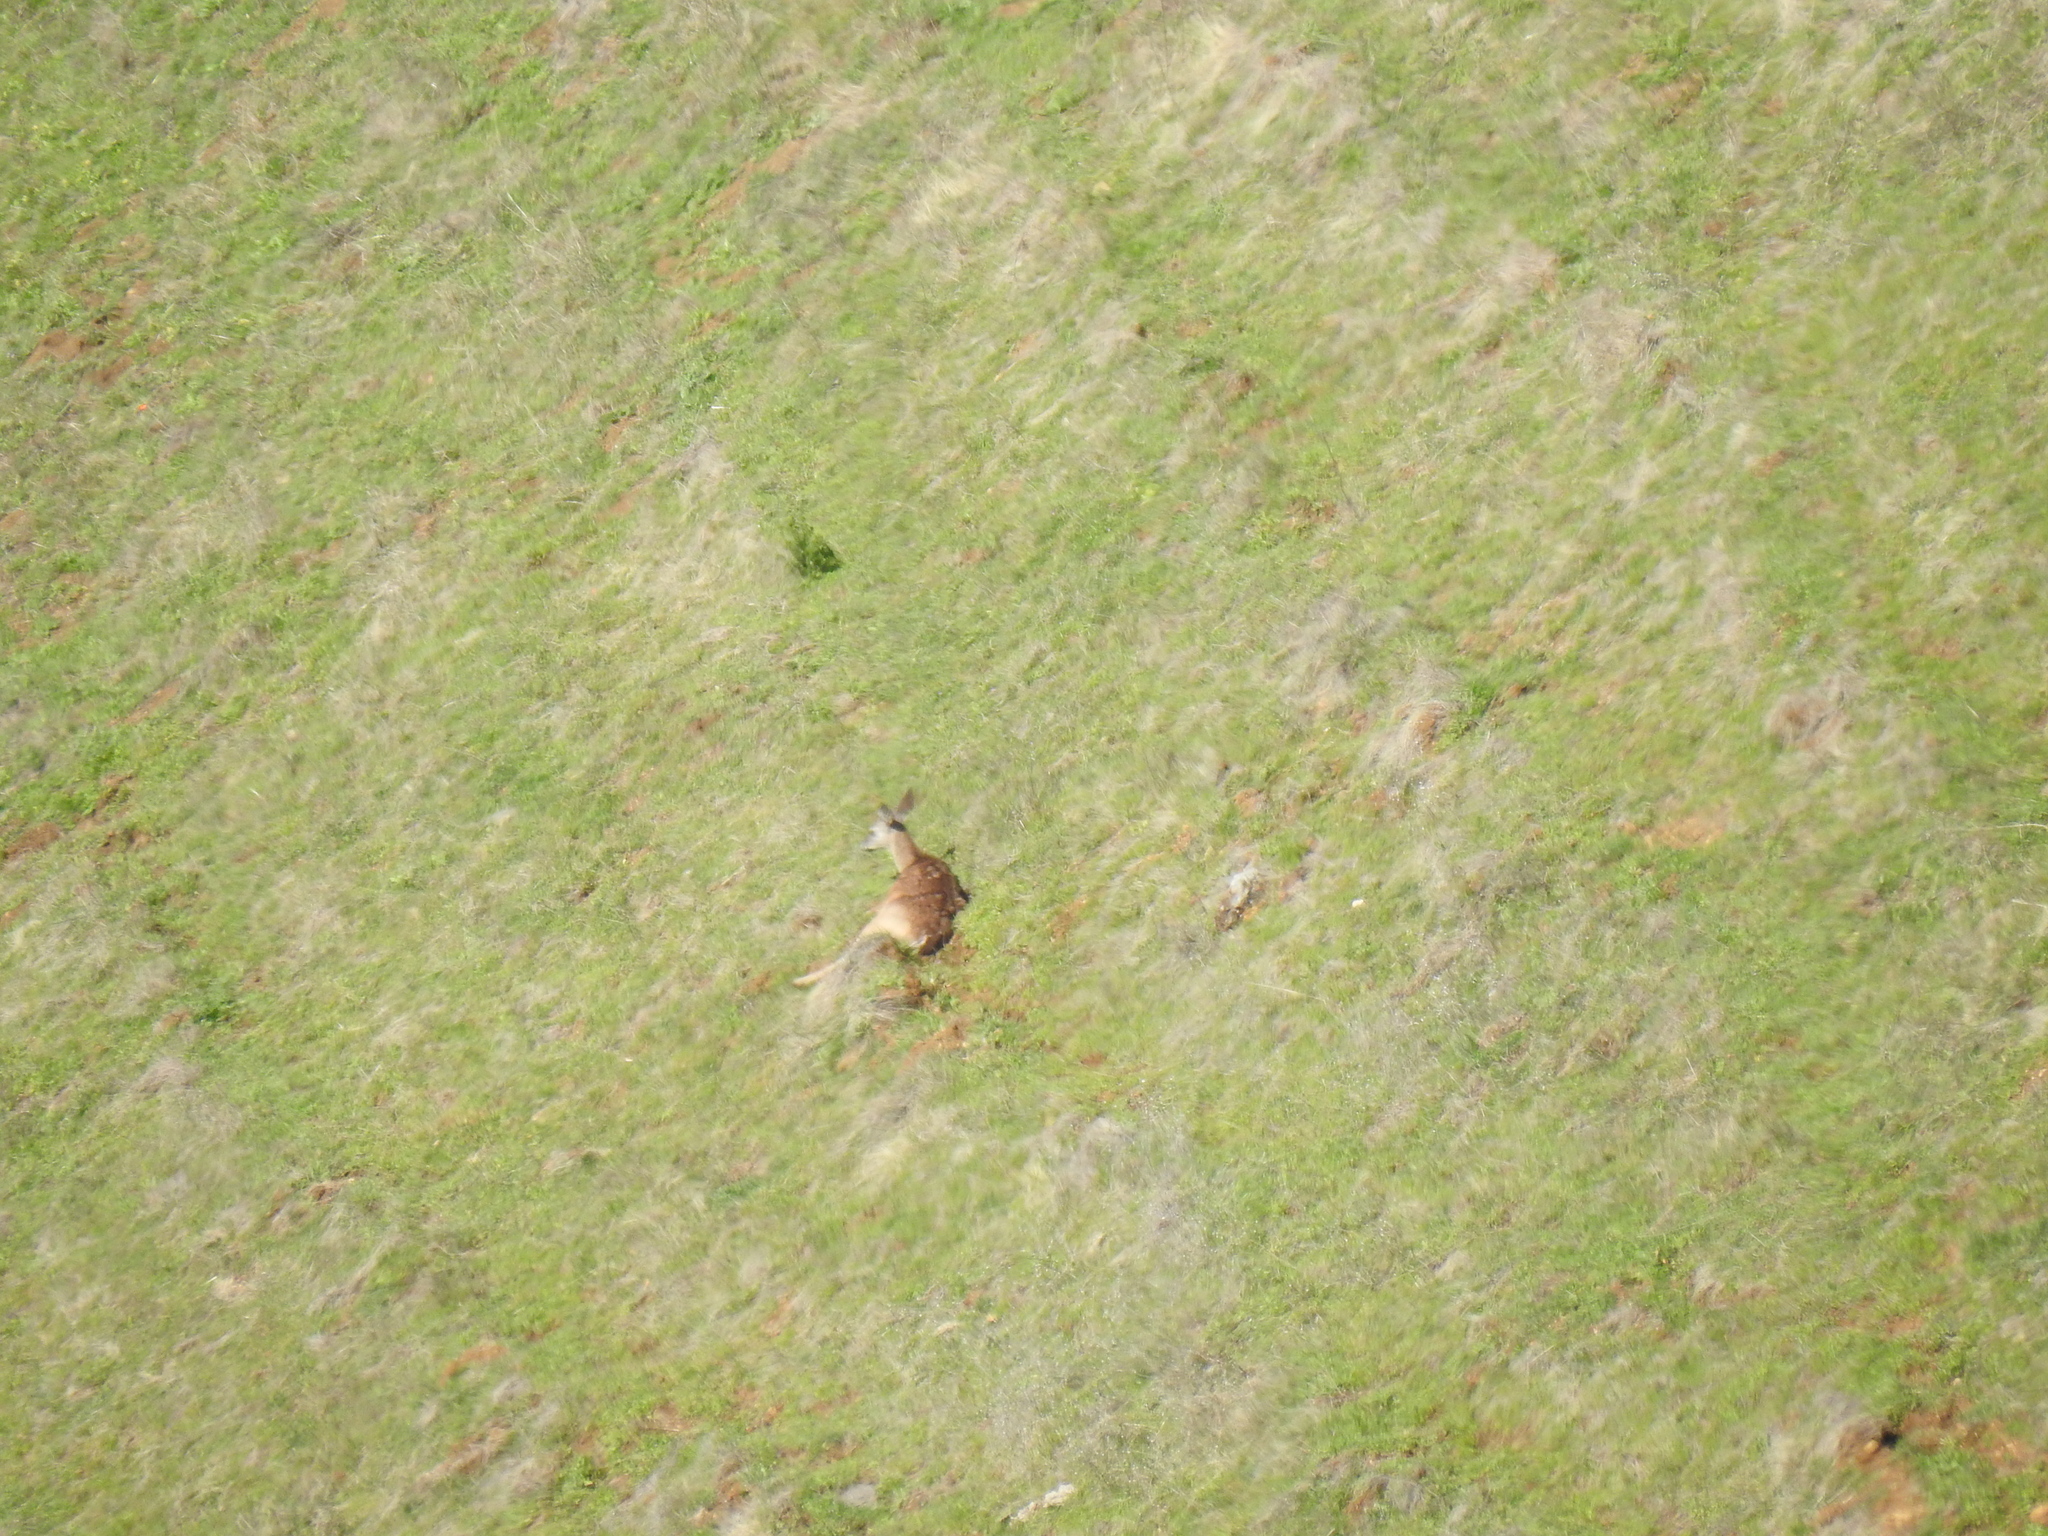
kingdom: Animalia
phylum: Chordata
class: Mammalia
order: Artiodactyla
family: Cervidae
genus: Odocoileus
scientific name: Odocoileus hemionus
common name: Mule deer
